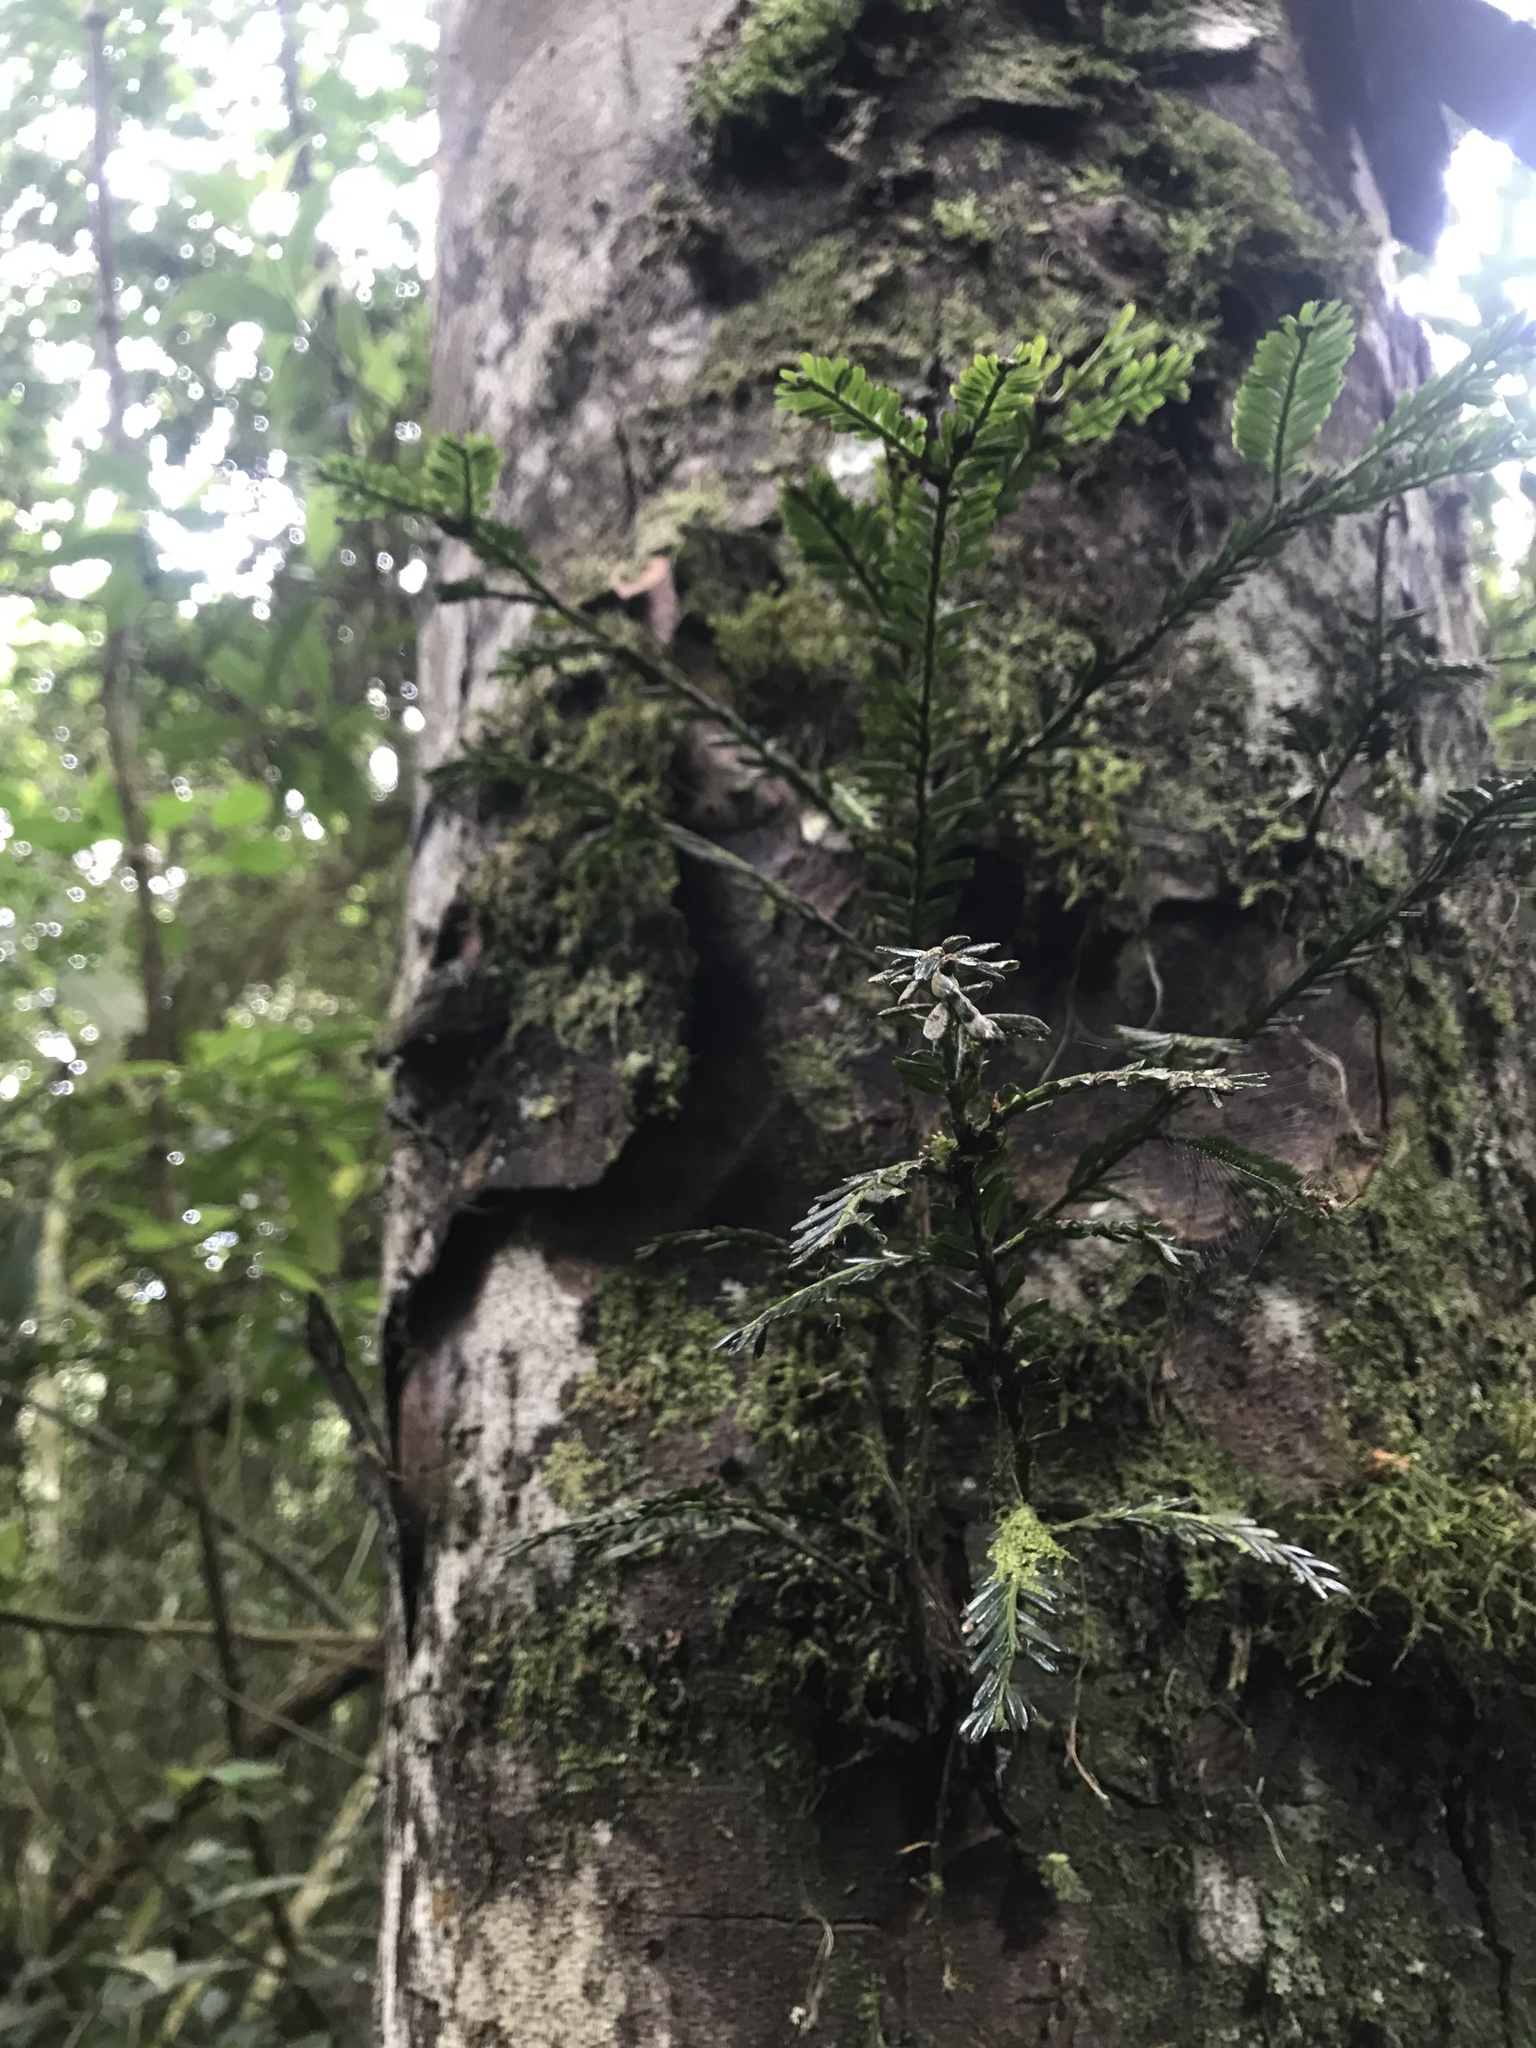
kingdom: Plantae
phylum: Tracheophyta
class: Pinopsida
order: Pinales
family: Podocarpaceae
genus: Prumnopitys
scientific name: Prumnopitys montana
